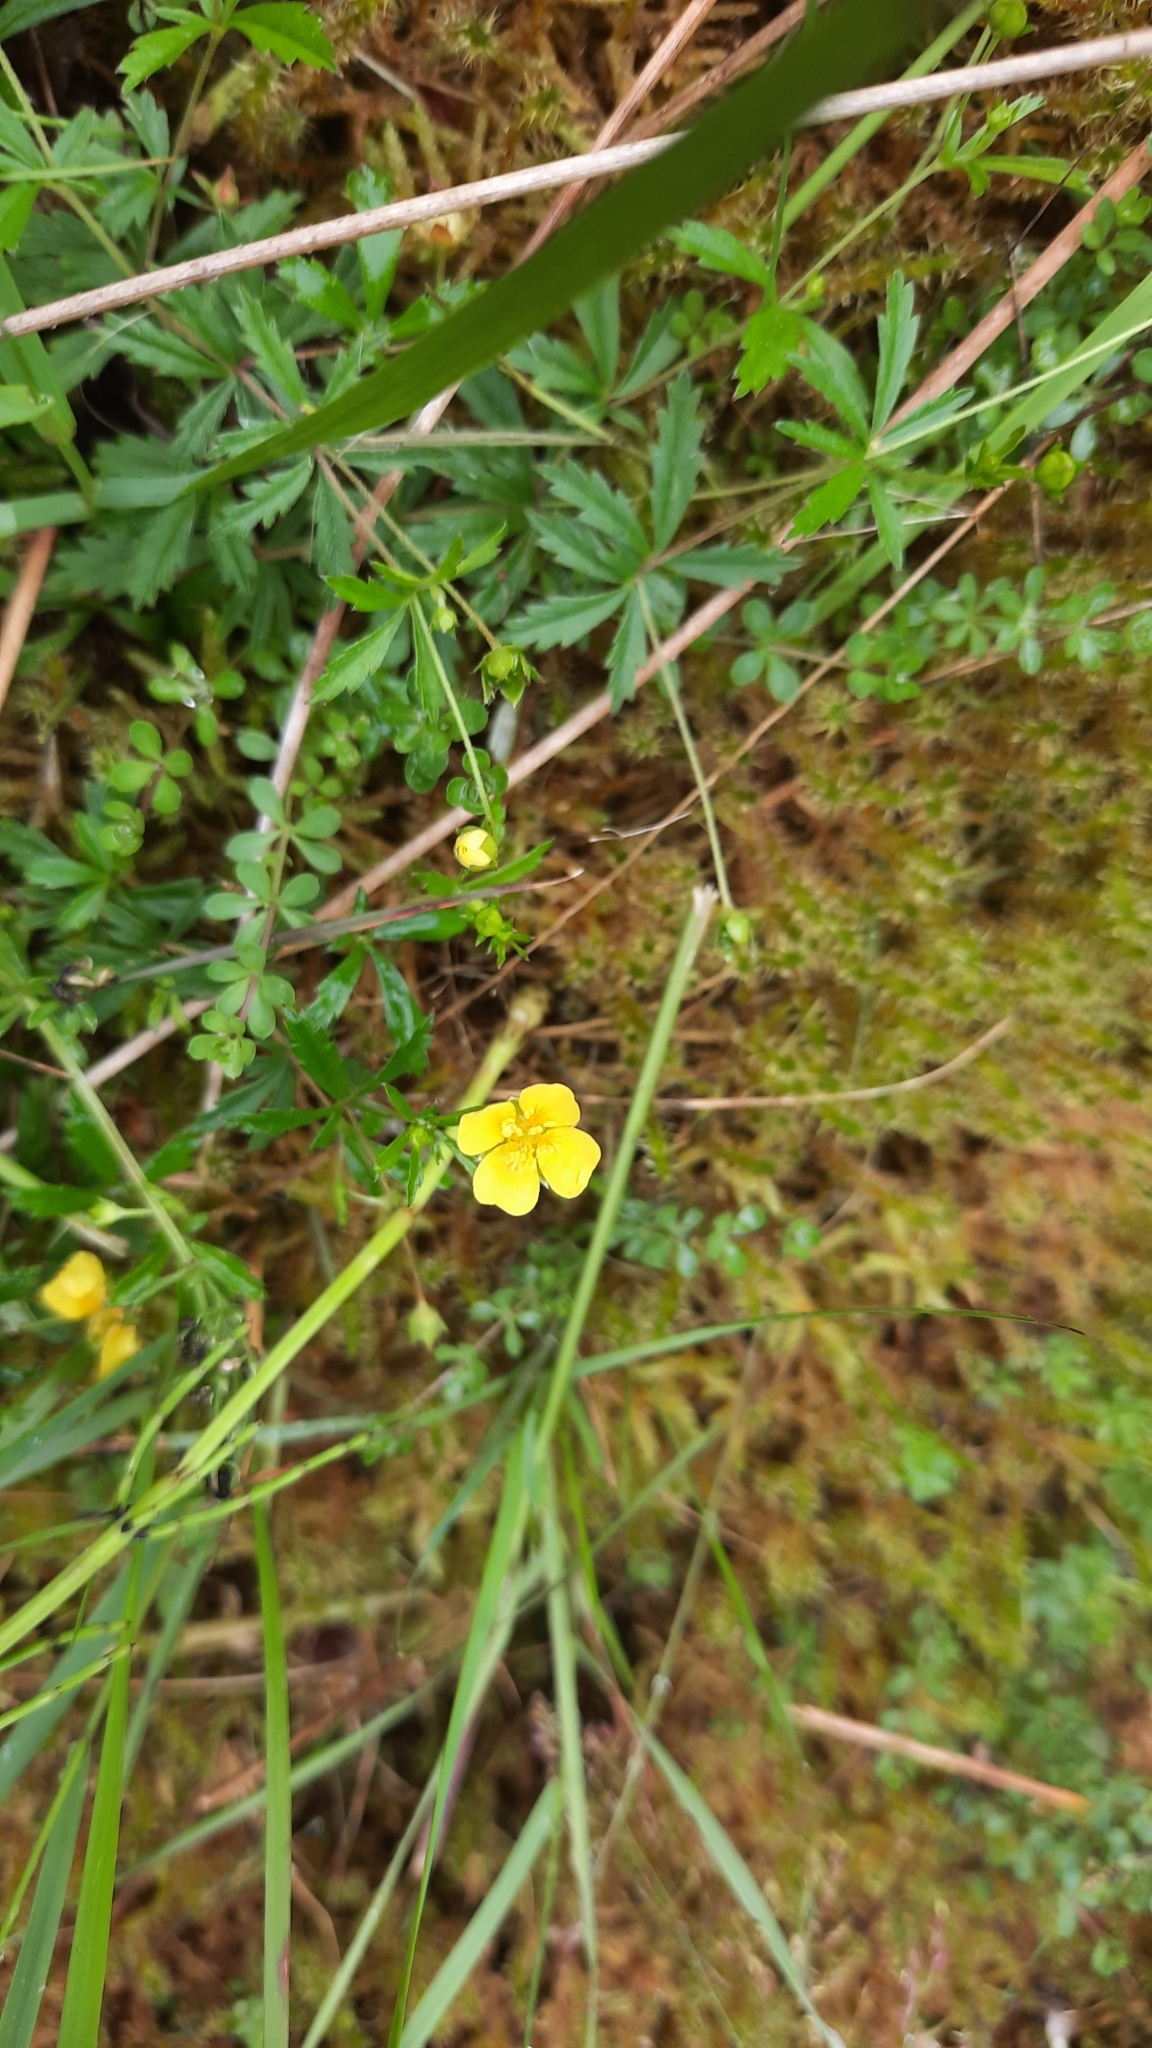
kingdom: Plantae
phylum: Tracheophyta
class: Magnoliopsida
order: Rosales
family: Rosaceae
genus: Potentilla
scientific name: Potentilla erecta
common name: Tormentil
